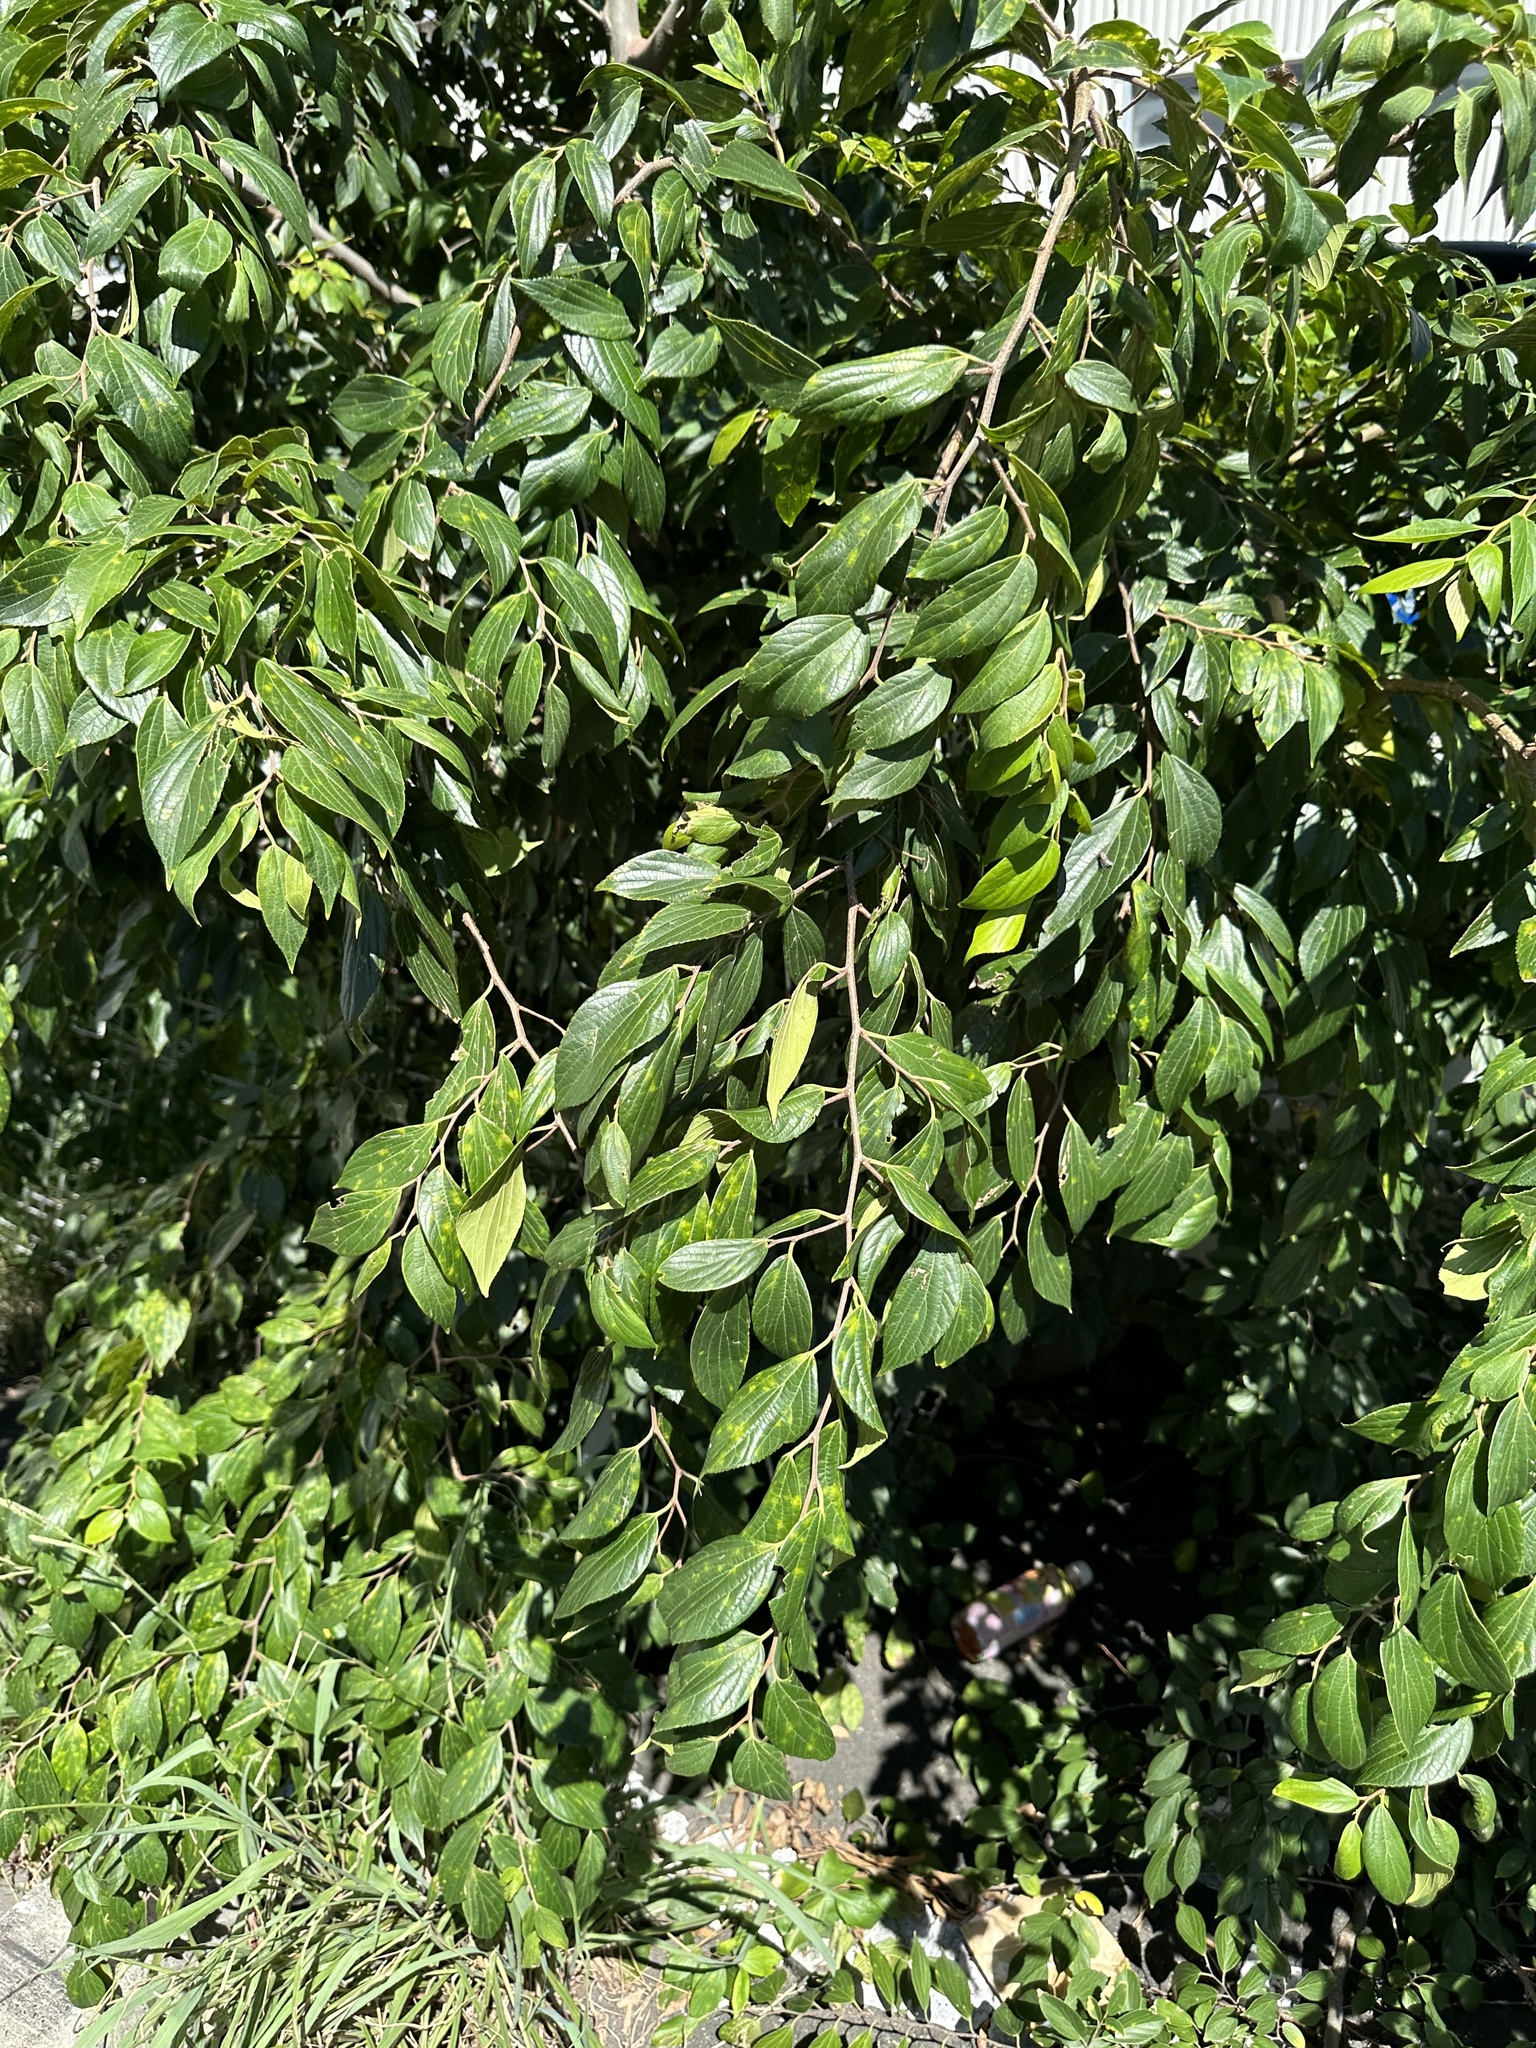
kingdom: Plantae
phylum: Tracheophyta
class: Magnoliopsida
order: Rosales
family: Cannabaceae
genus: Celtis
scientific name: Celtis sinensis
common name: Chinese hackberry
